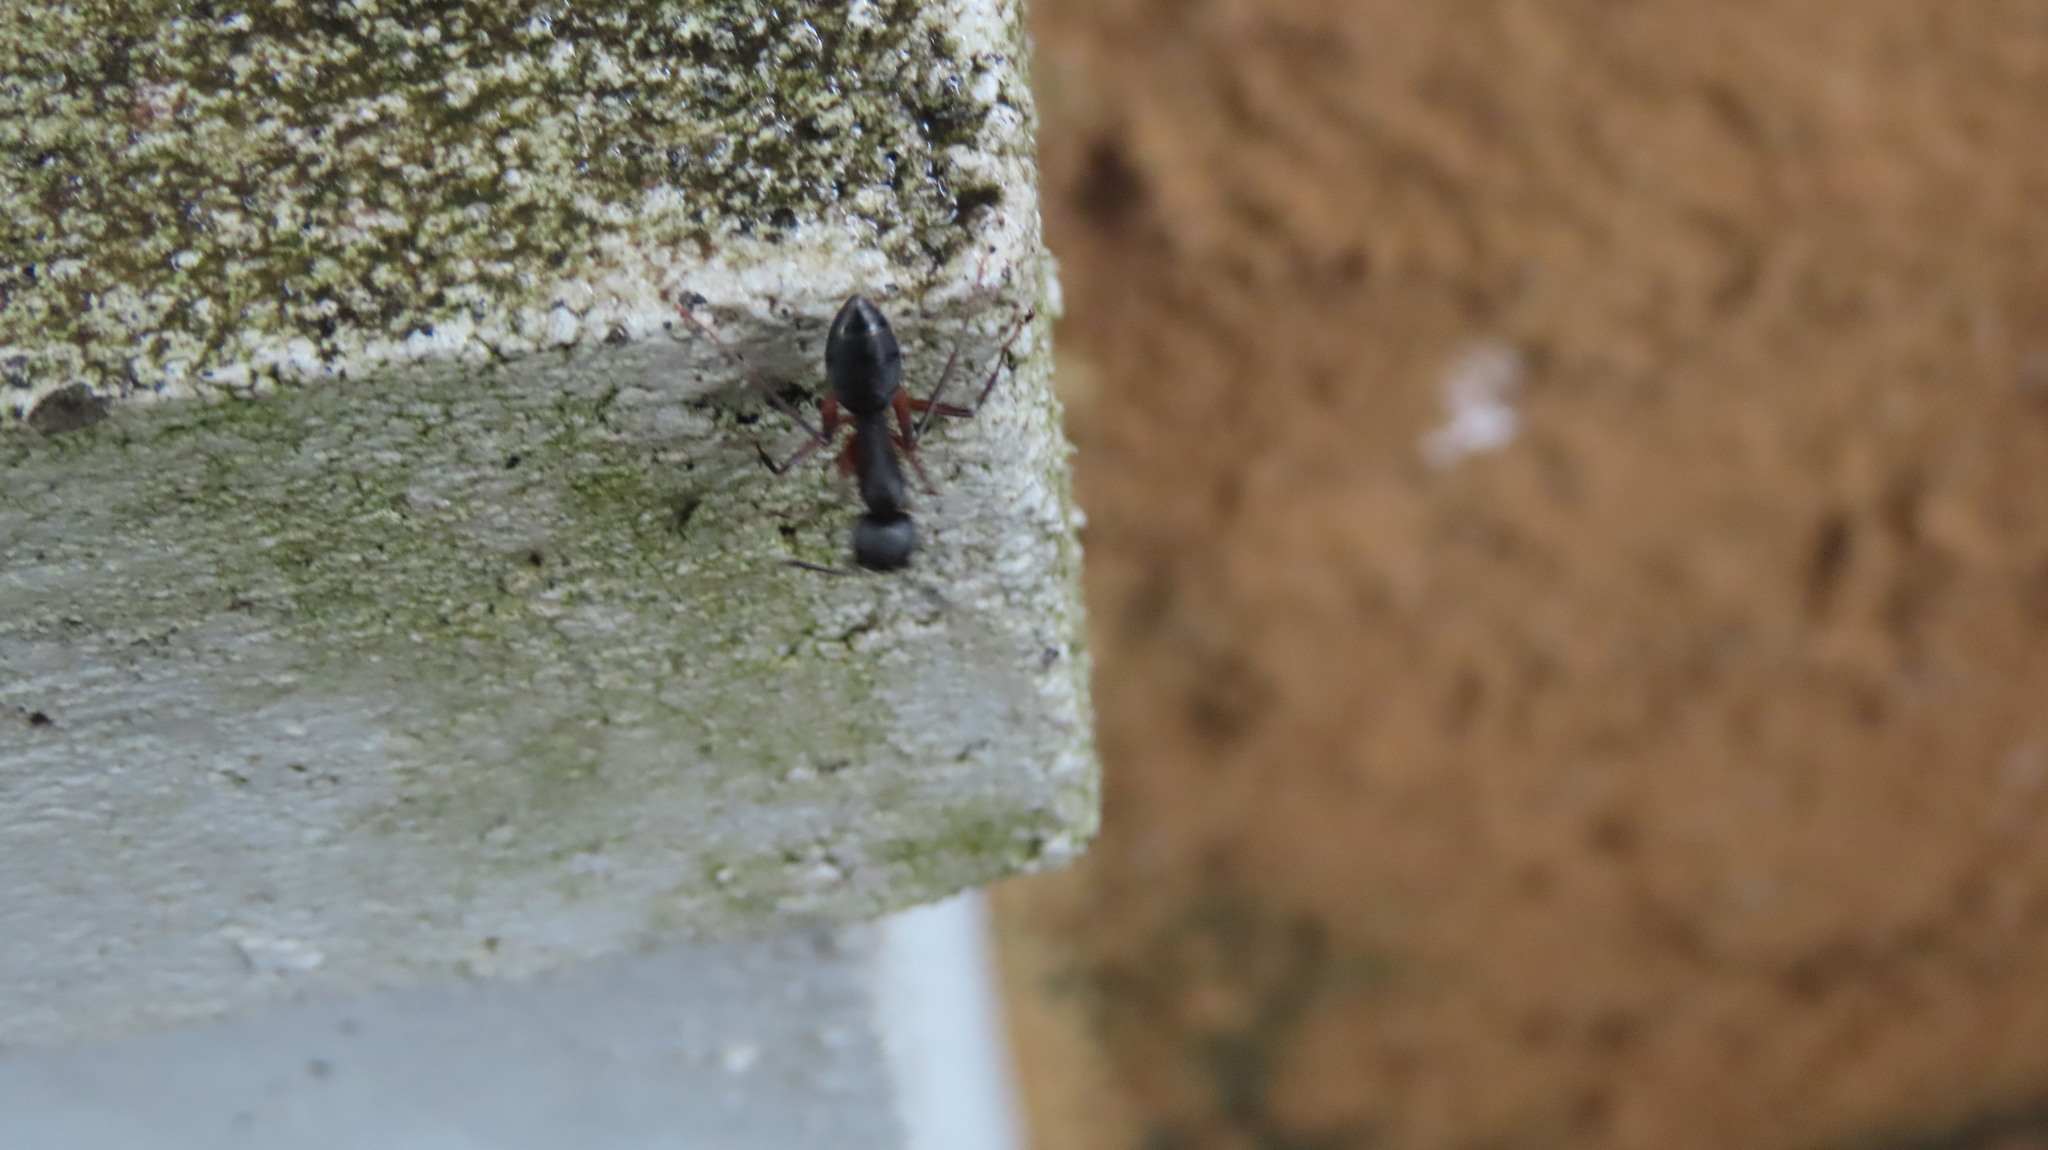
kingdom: Animalia
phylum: Arthropoda
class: Insecta
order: Hymenoptera
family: Formicidae
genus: Camponotus
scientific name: Camponotus compressus
